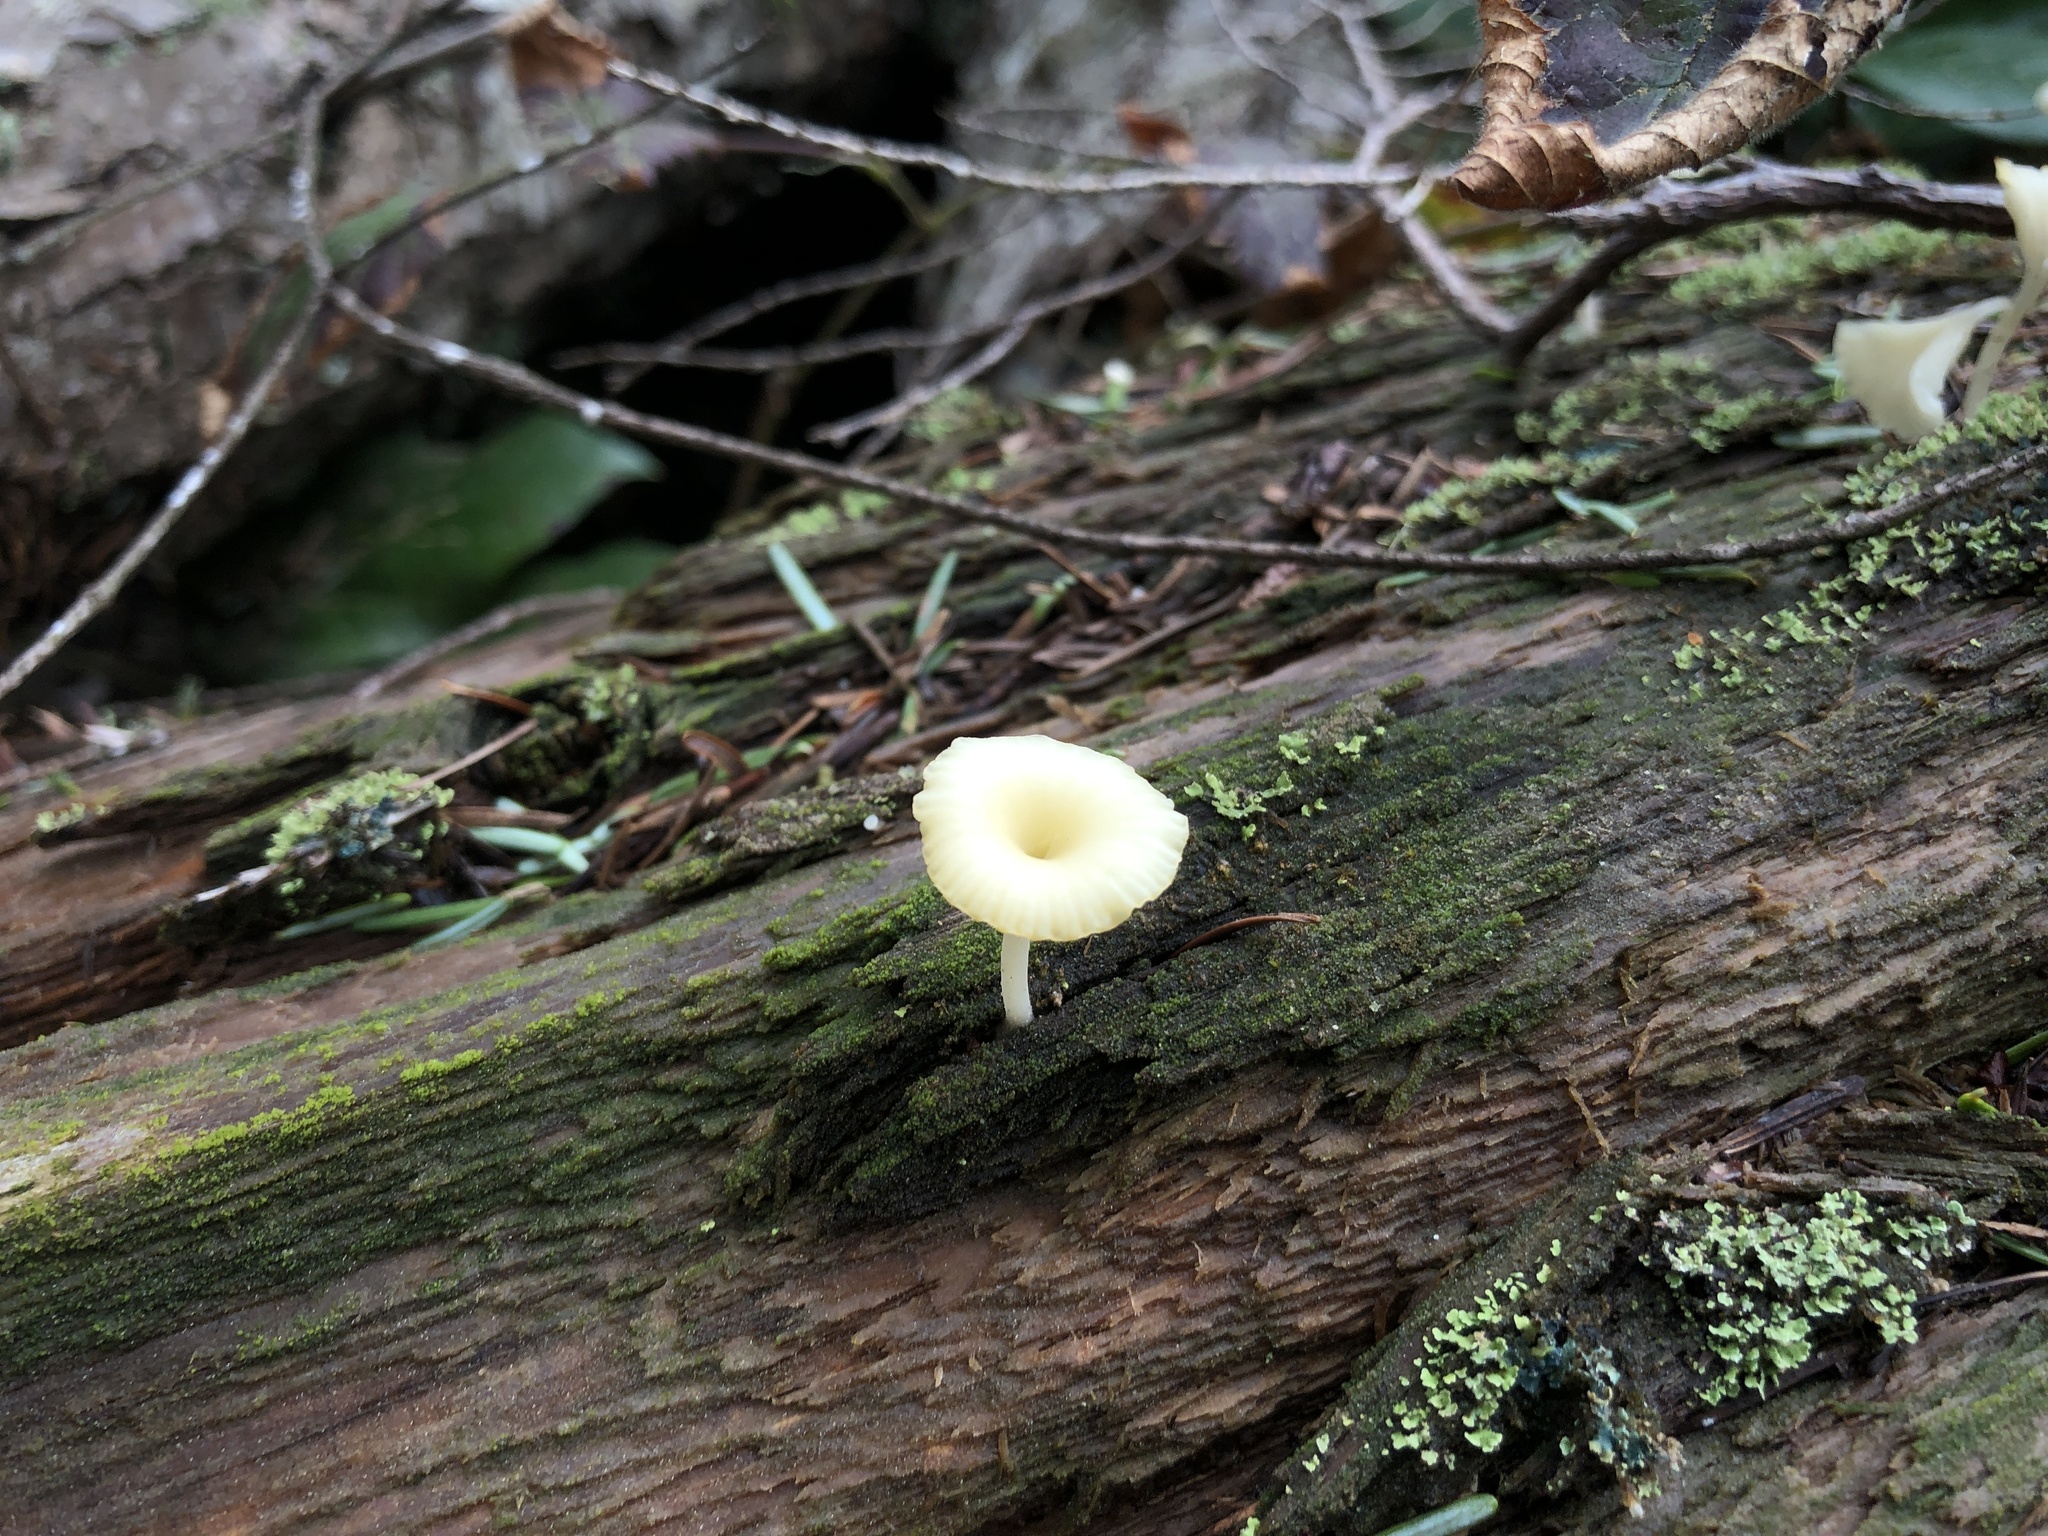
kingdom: Fungi
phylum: Basidiomycota
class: Agaricomycetes
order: Agaricales
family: Hygrophoraceae
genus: Lichenomphalia
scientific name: Lichenomphalia
